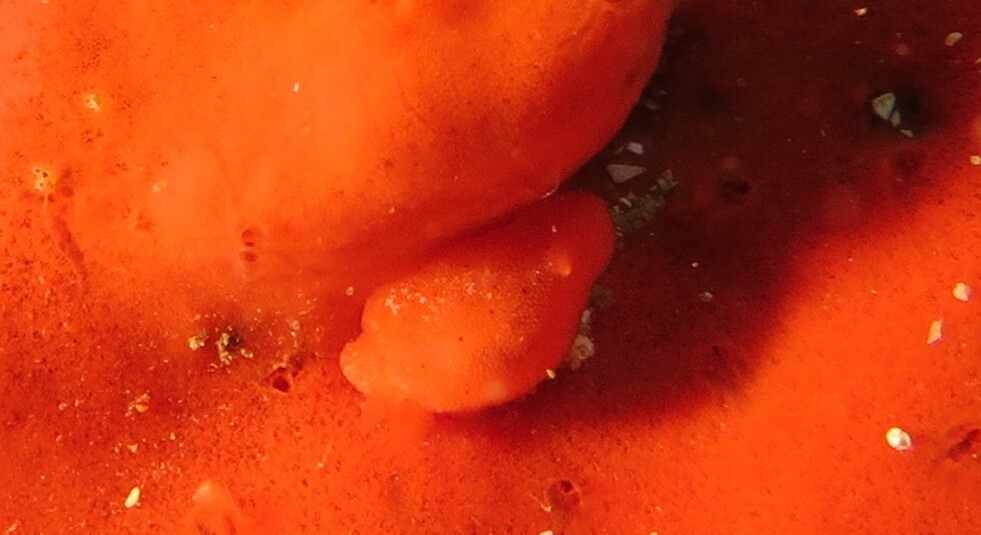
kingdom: Animalia
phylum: Mollusca
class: Gastropoda
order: Nudibranchia
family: Discodorididae
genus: Rostanga
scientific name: Rostanga elandsia
